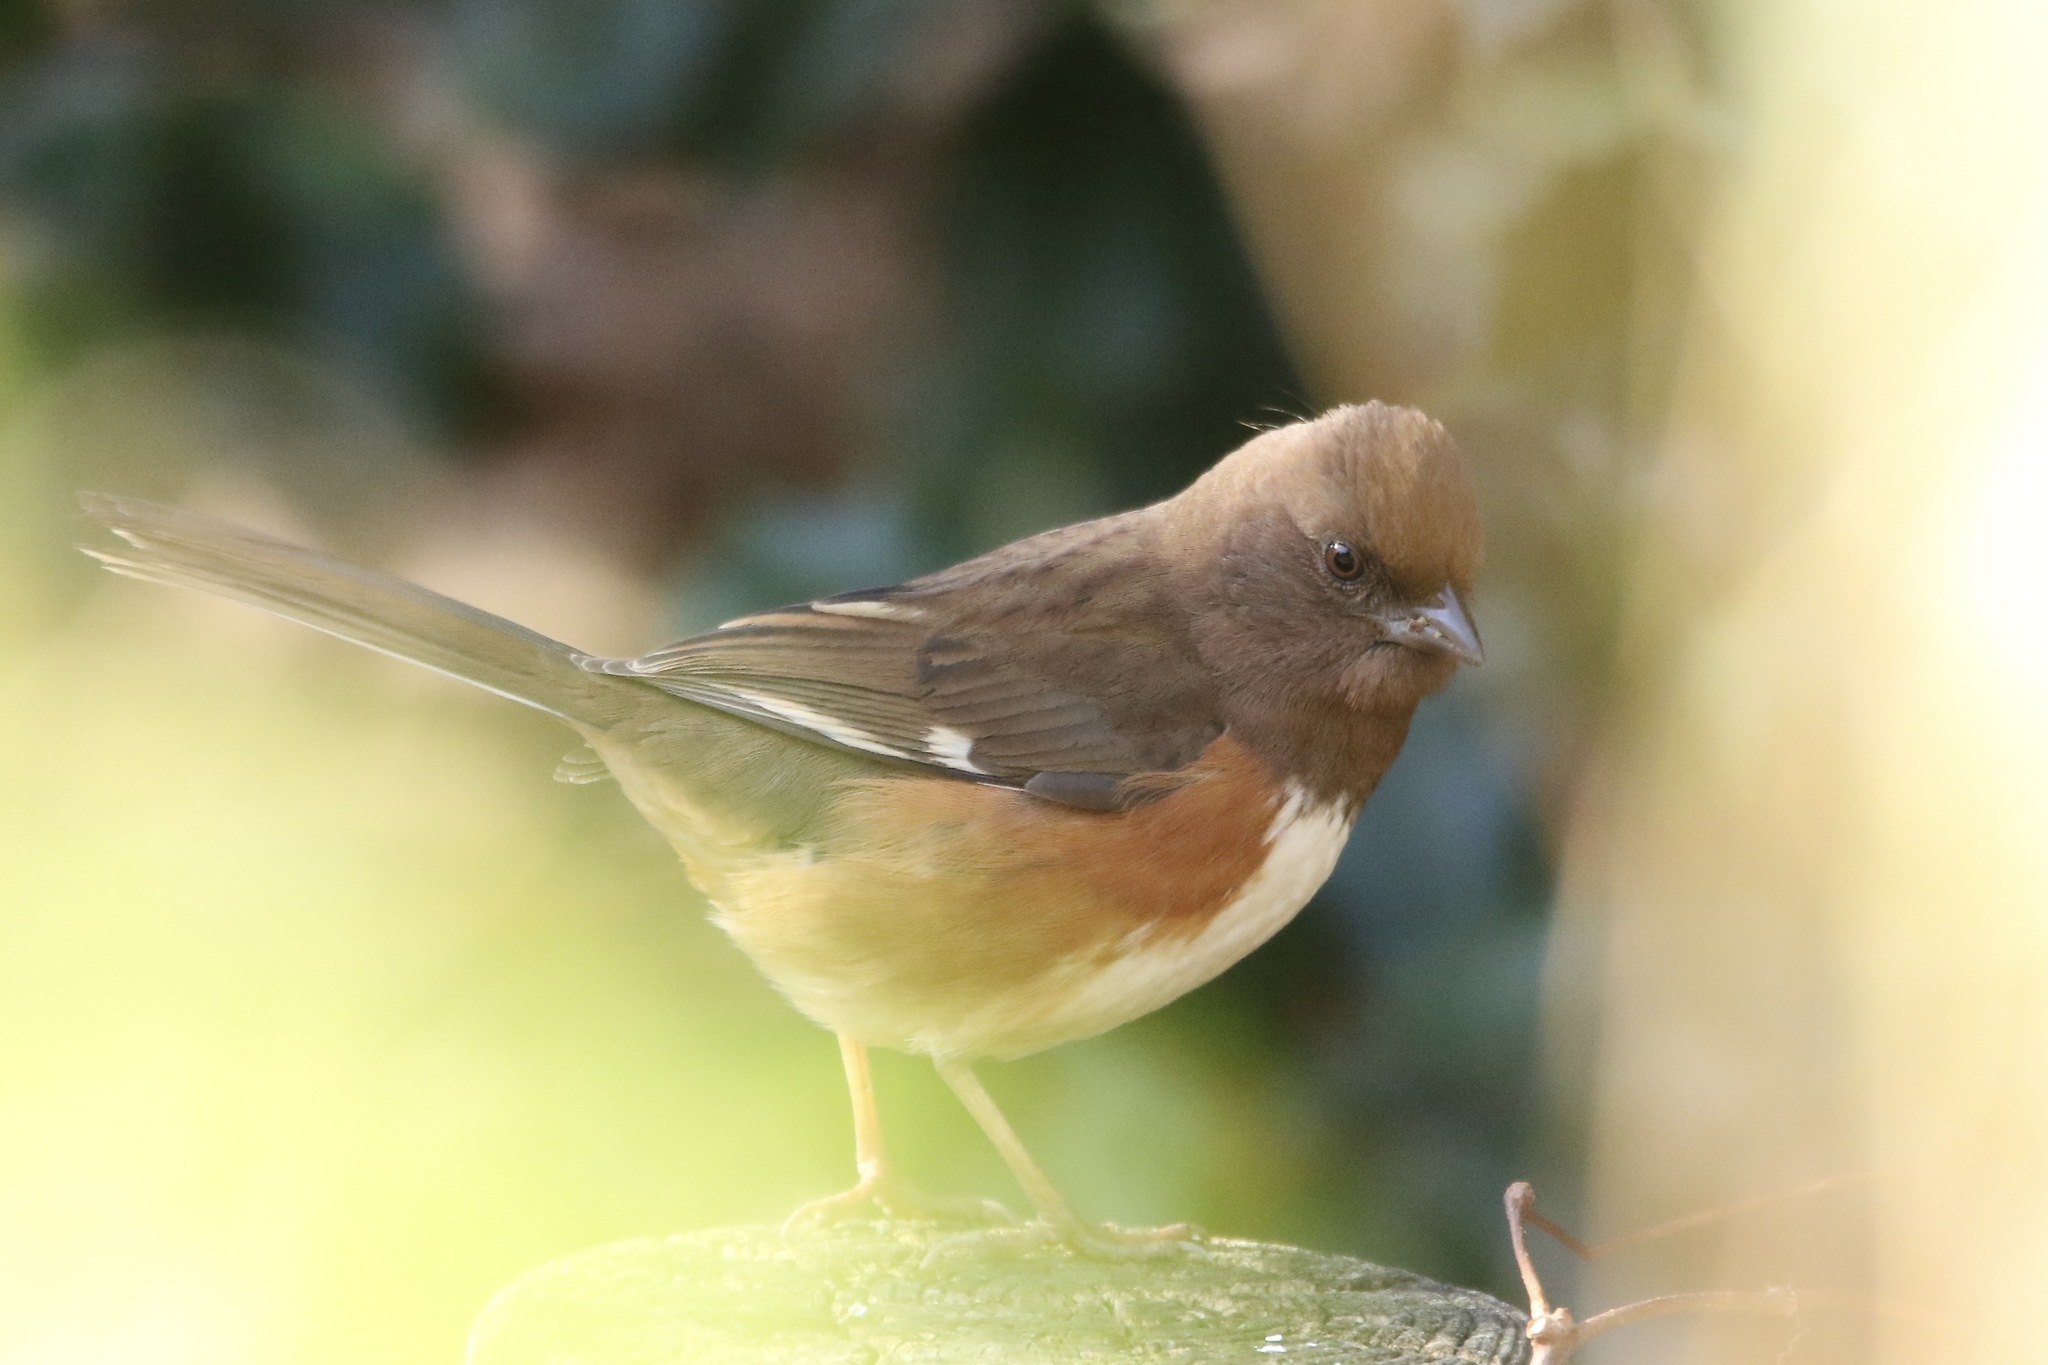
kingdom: Animalia
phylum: Chordata
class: Aves
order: Passeriformes
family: Passerellidae
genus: Pipilo
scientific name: Pipilo erythrophthalmus
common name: Eastern towhee
